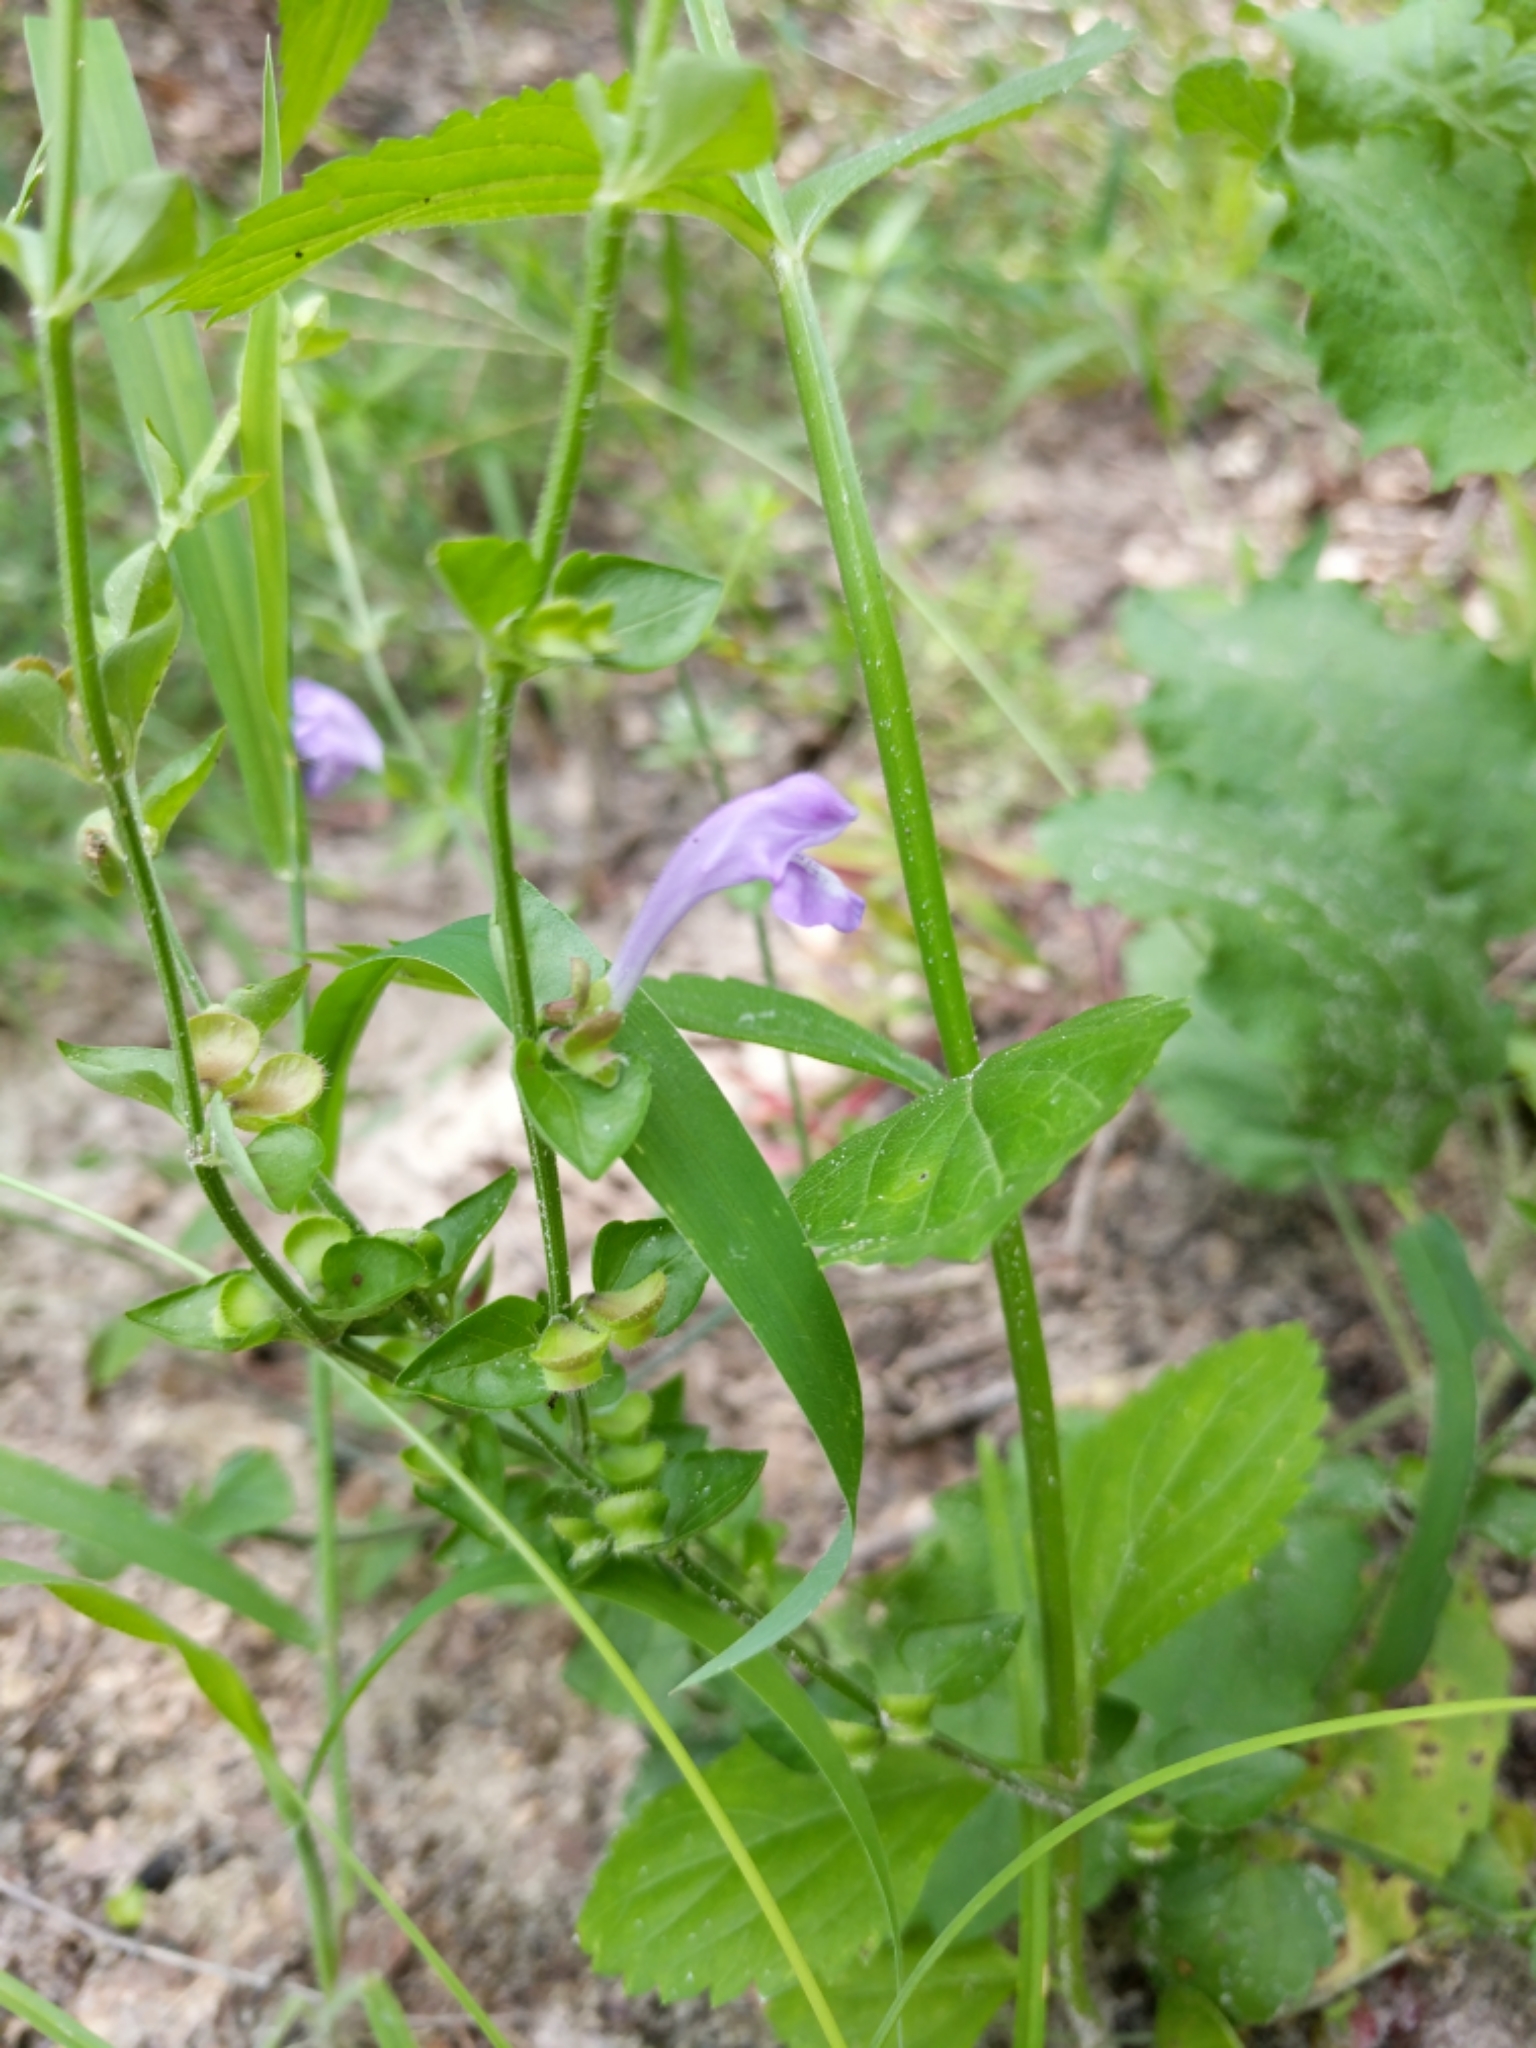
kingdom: Plantae
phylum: Tracheophyta
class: Magnoliopsida
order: Lamiales
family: Lamiaceae
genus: Scutellaria
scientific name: Scutellaria cardiophylla
